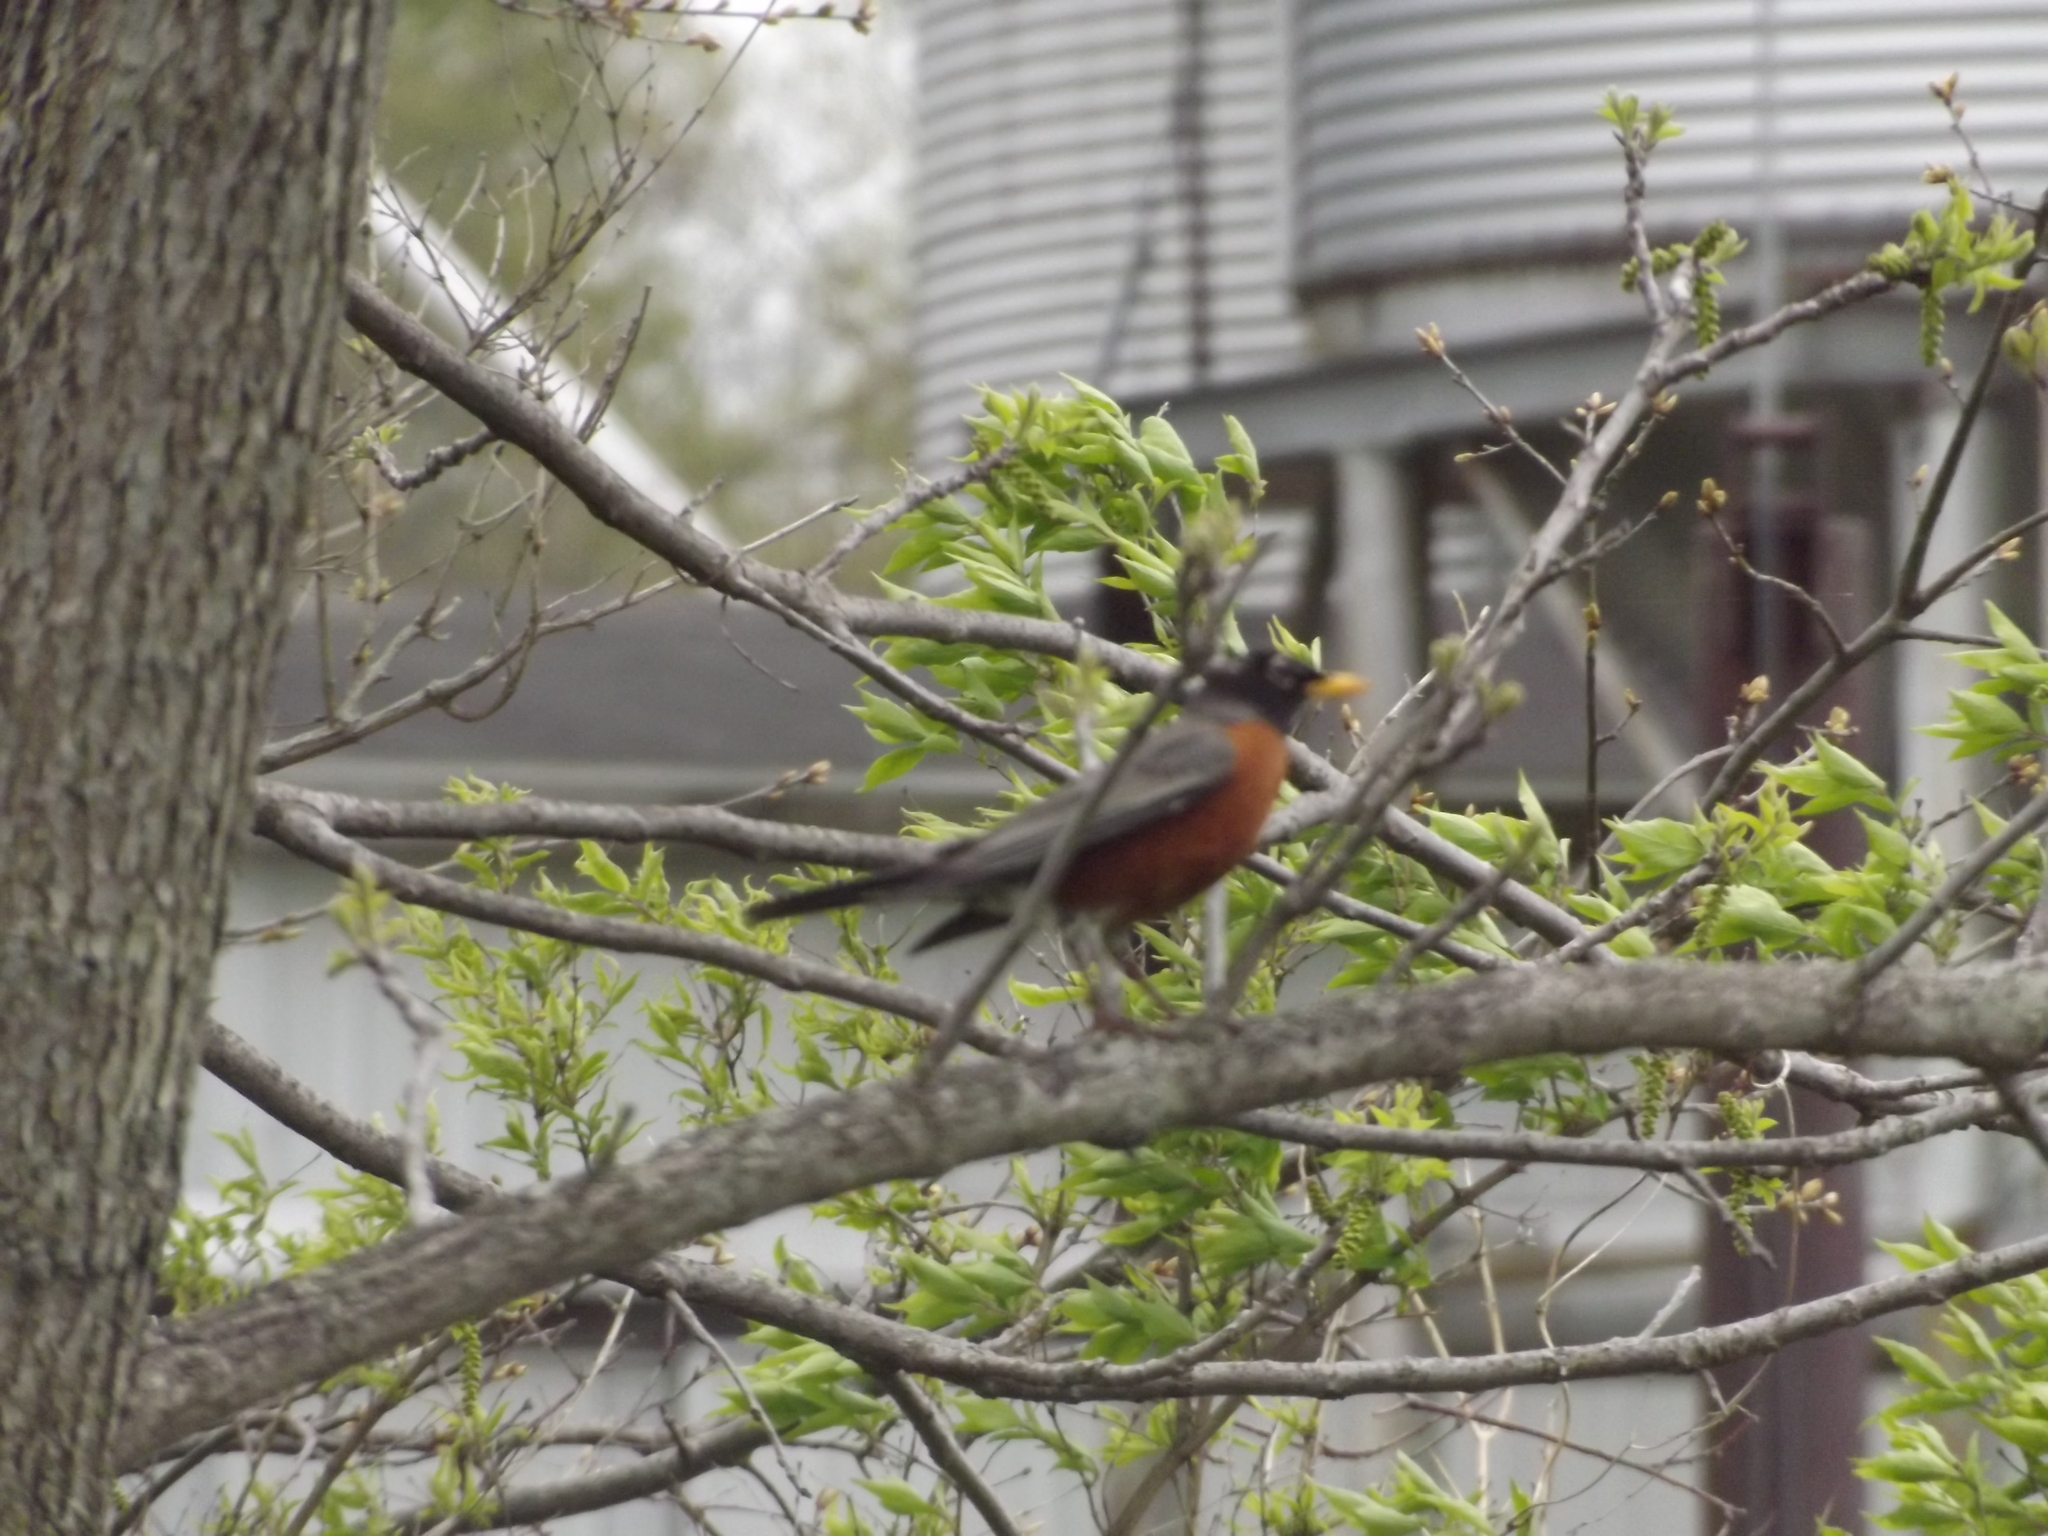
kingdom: Animalia
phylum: Chordata
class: Aves
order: Passeriformes
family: Turdidae
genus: Turdus
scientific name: Turdus migratorius
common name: American robin
